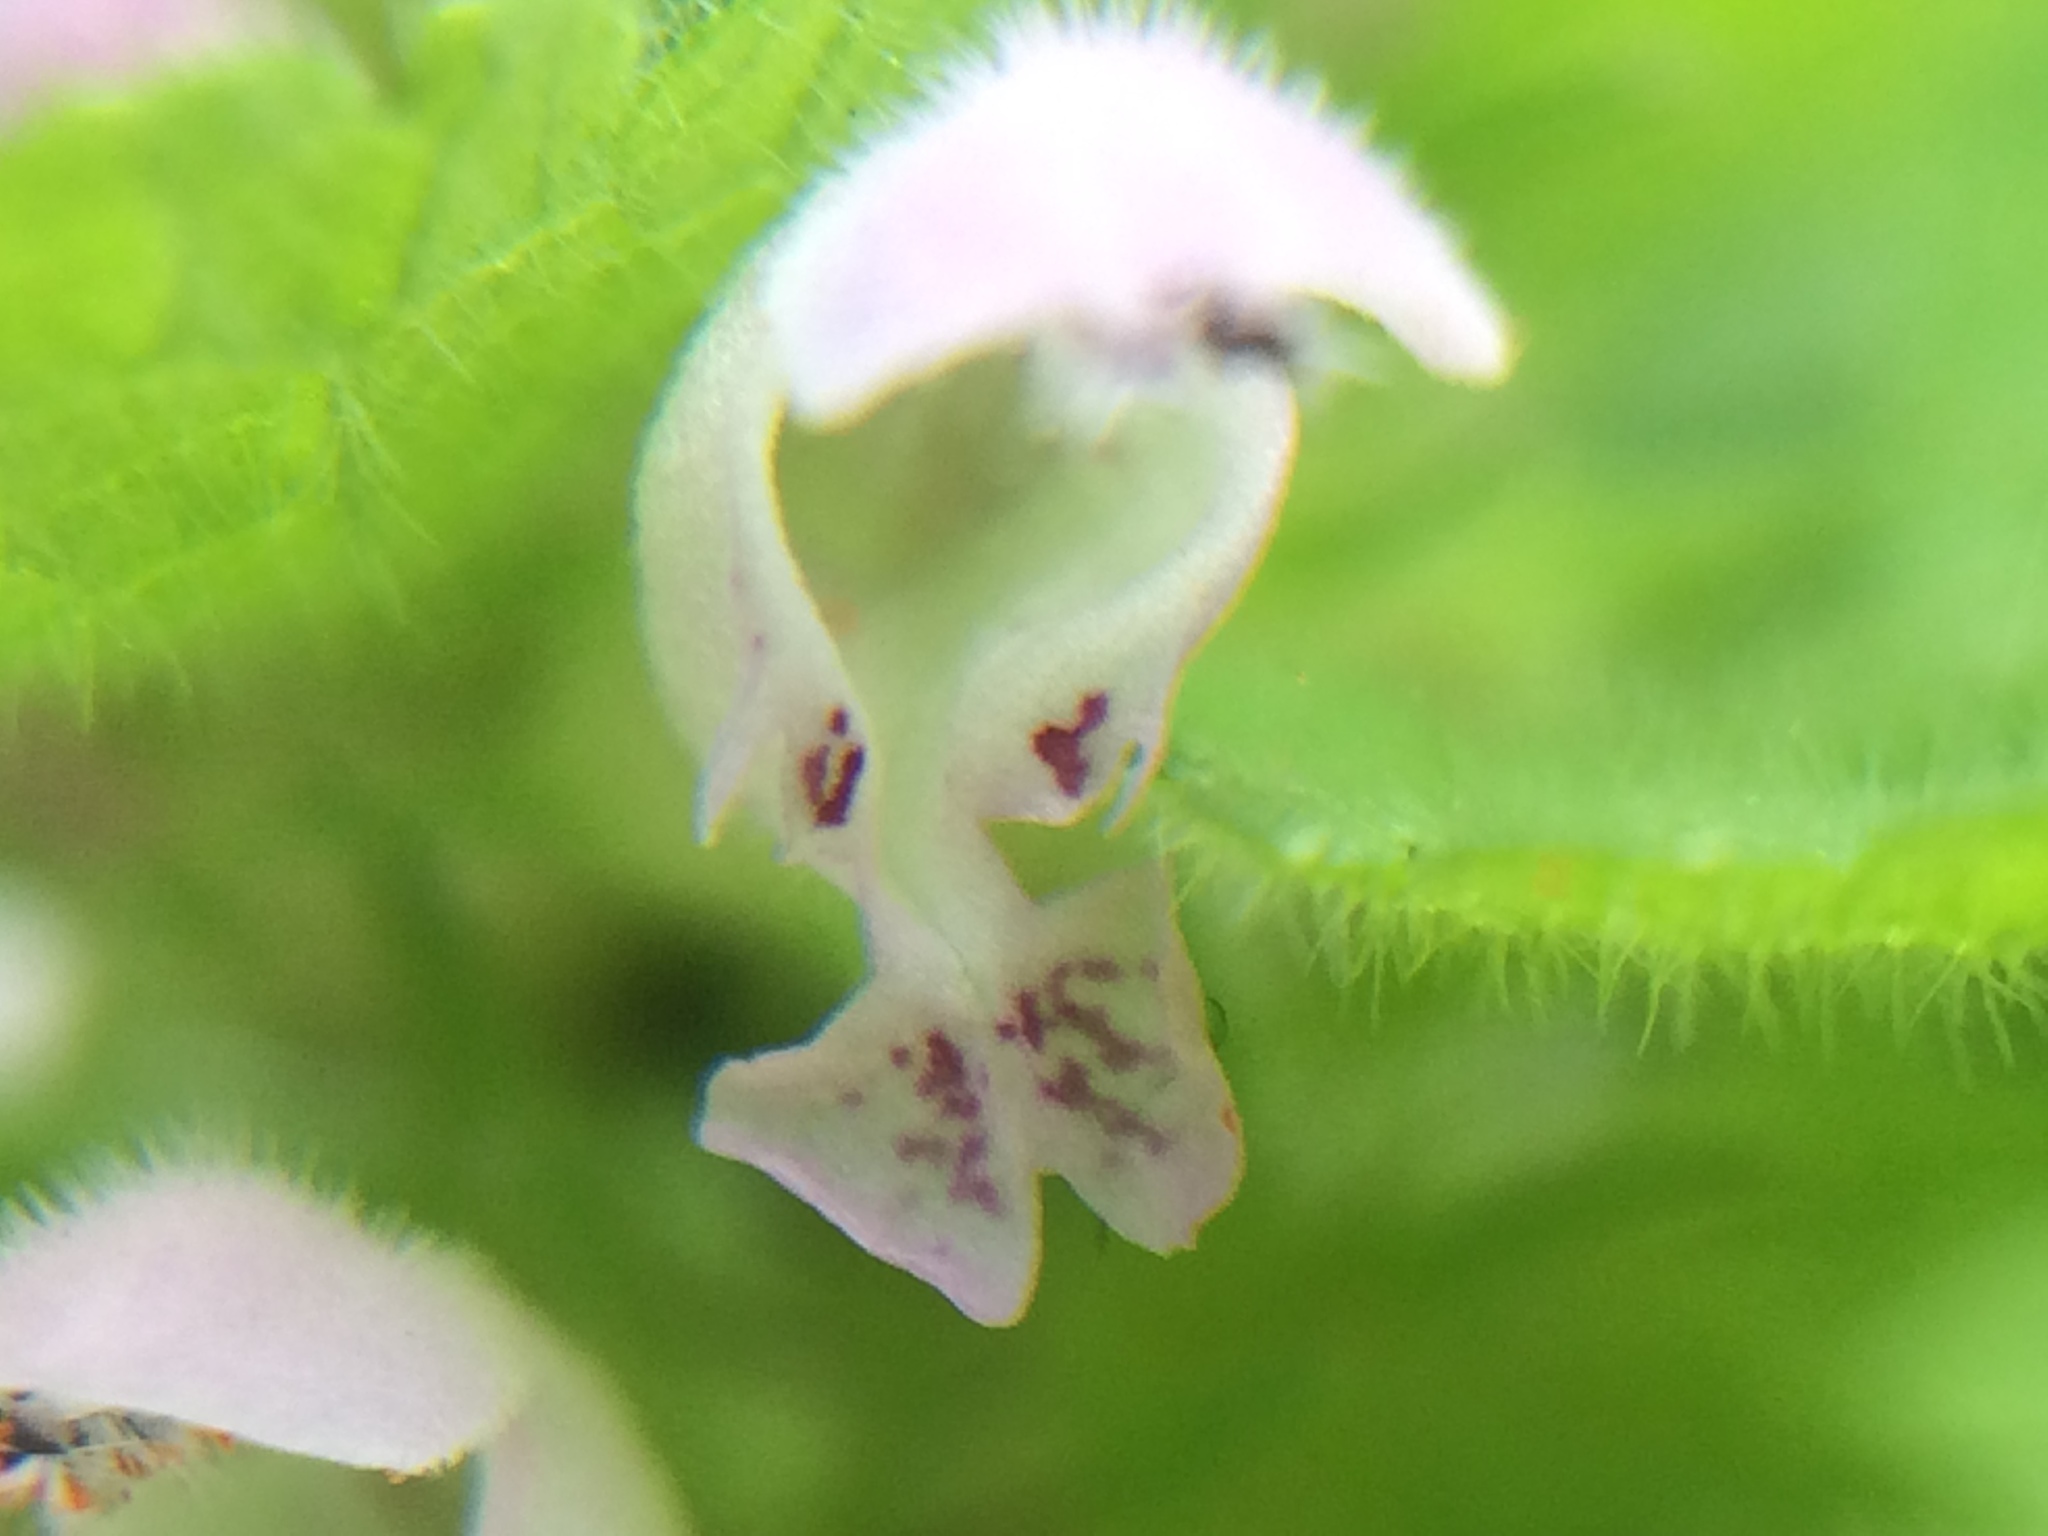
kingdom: Plantae
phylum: Tracheophyta
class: Magnoliopsida
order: Lamiales
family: Lamiaceae
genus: Lamium
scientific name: Lamium purpureum
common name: Red dead-nettle
